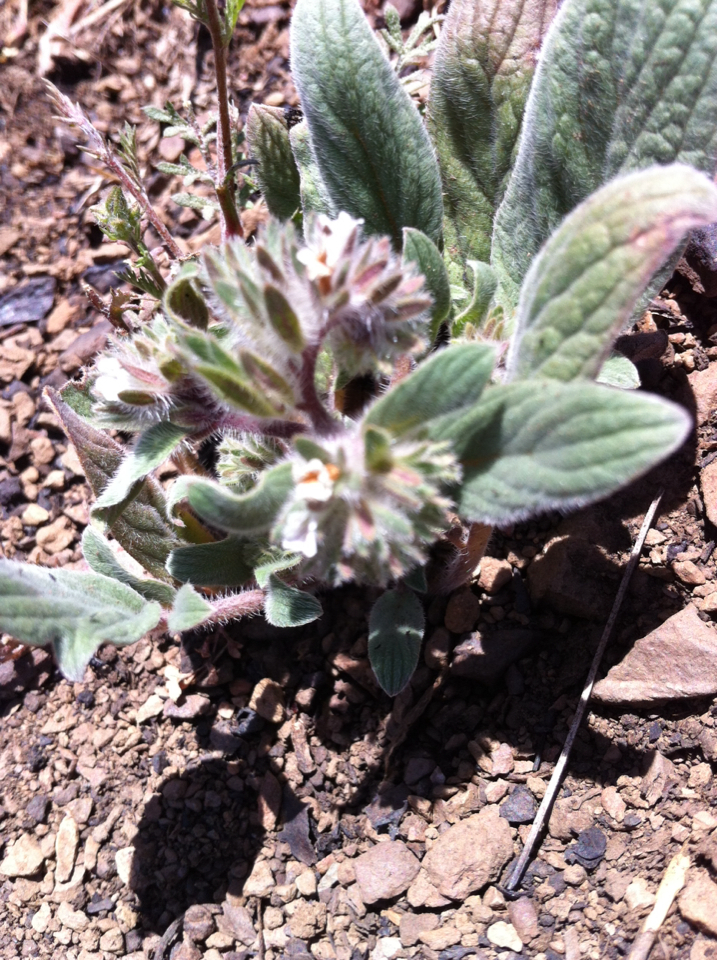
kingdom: Plantae
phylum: Tracheophyta
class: Magnoliopsida
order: Boraginales
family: Hydrophyllaceae
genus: Phacelia
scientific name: Phacelia phacelioides
